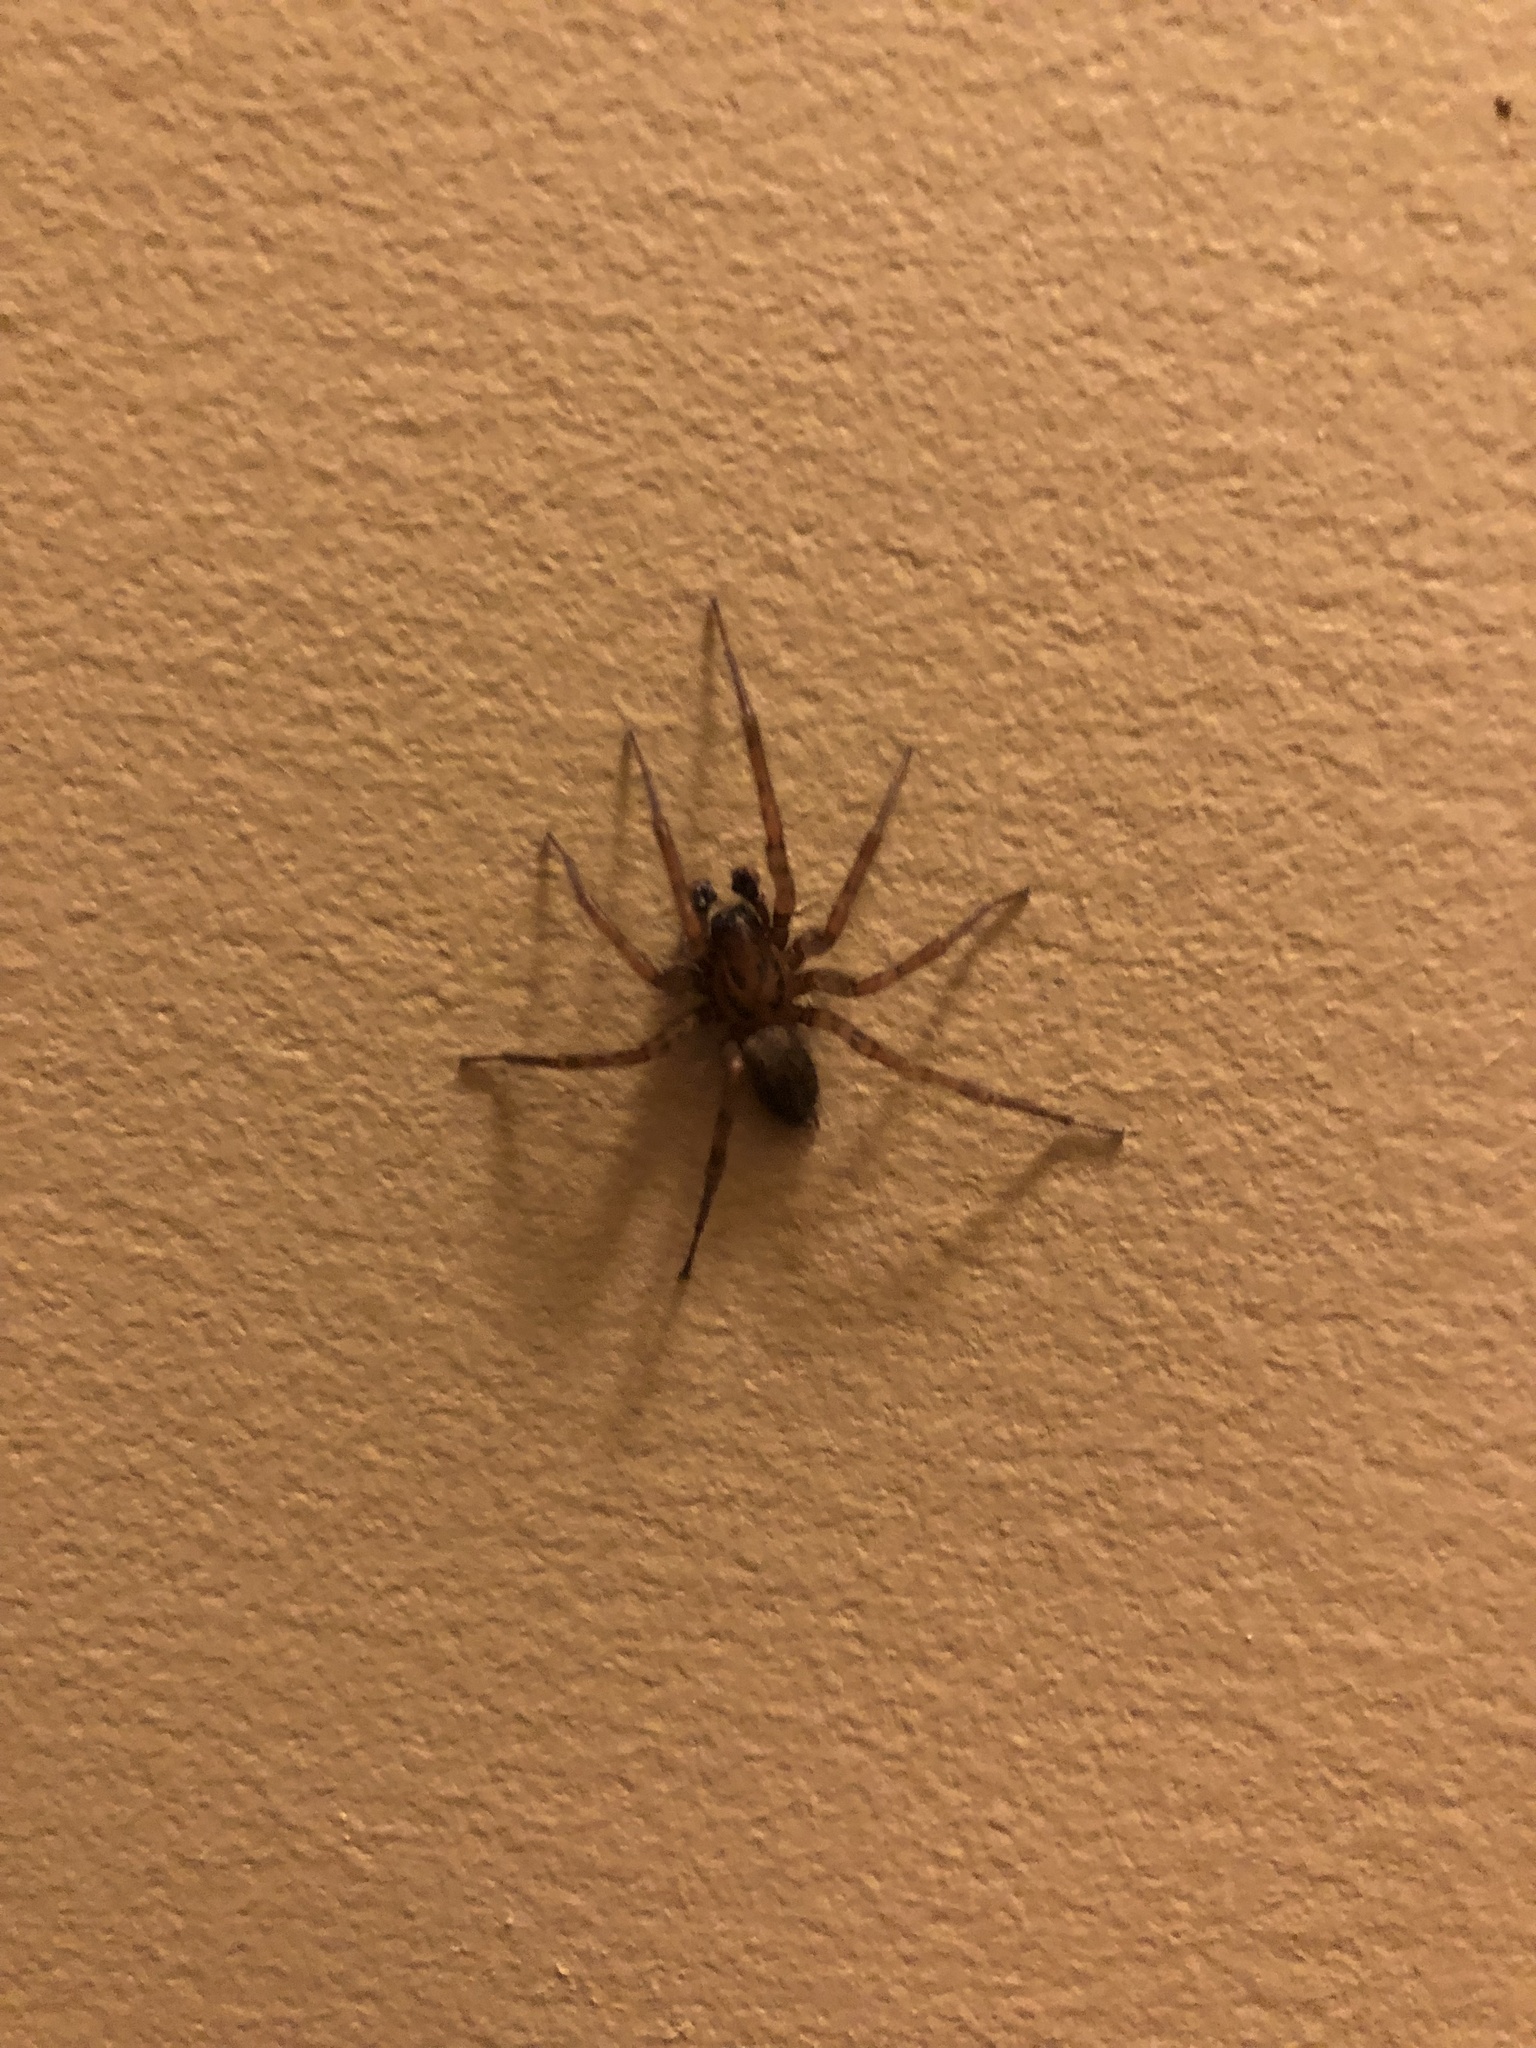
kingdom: Animalia
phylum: Arthropoda
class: Arachnida
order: Araneae
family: Agelenidae
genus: Coras
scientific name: Coras
